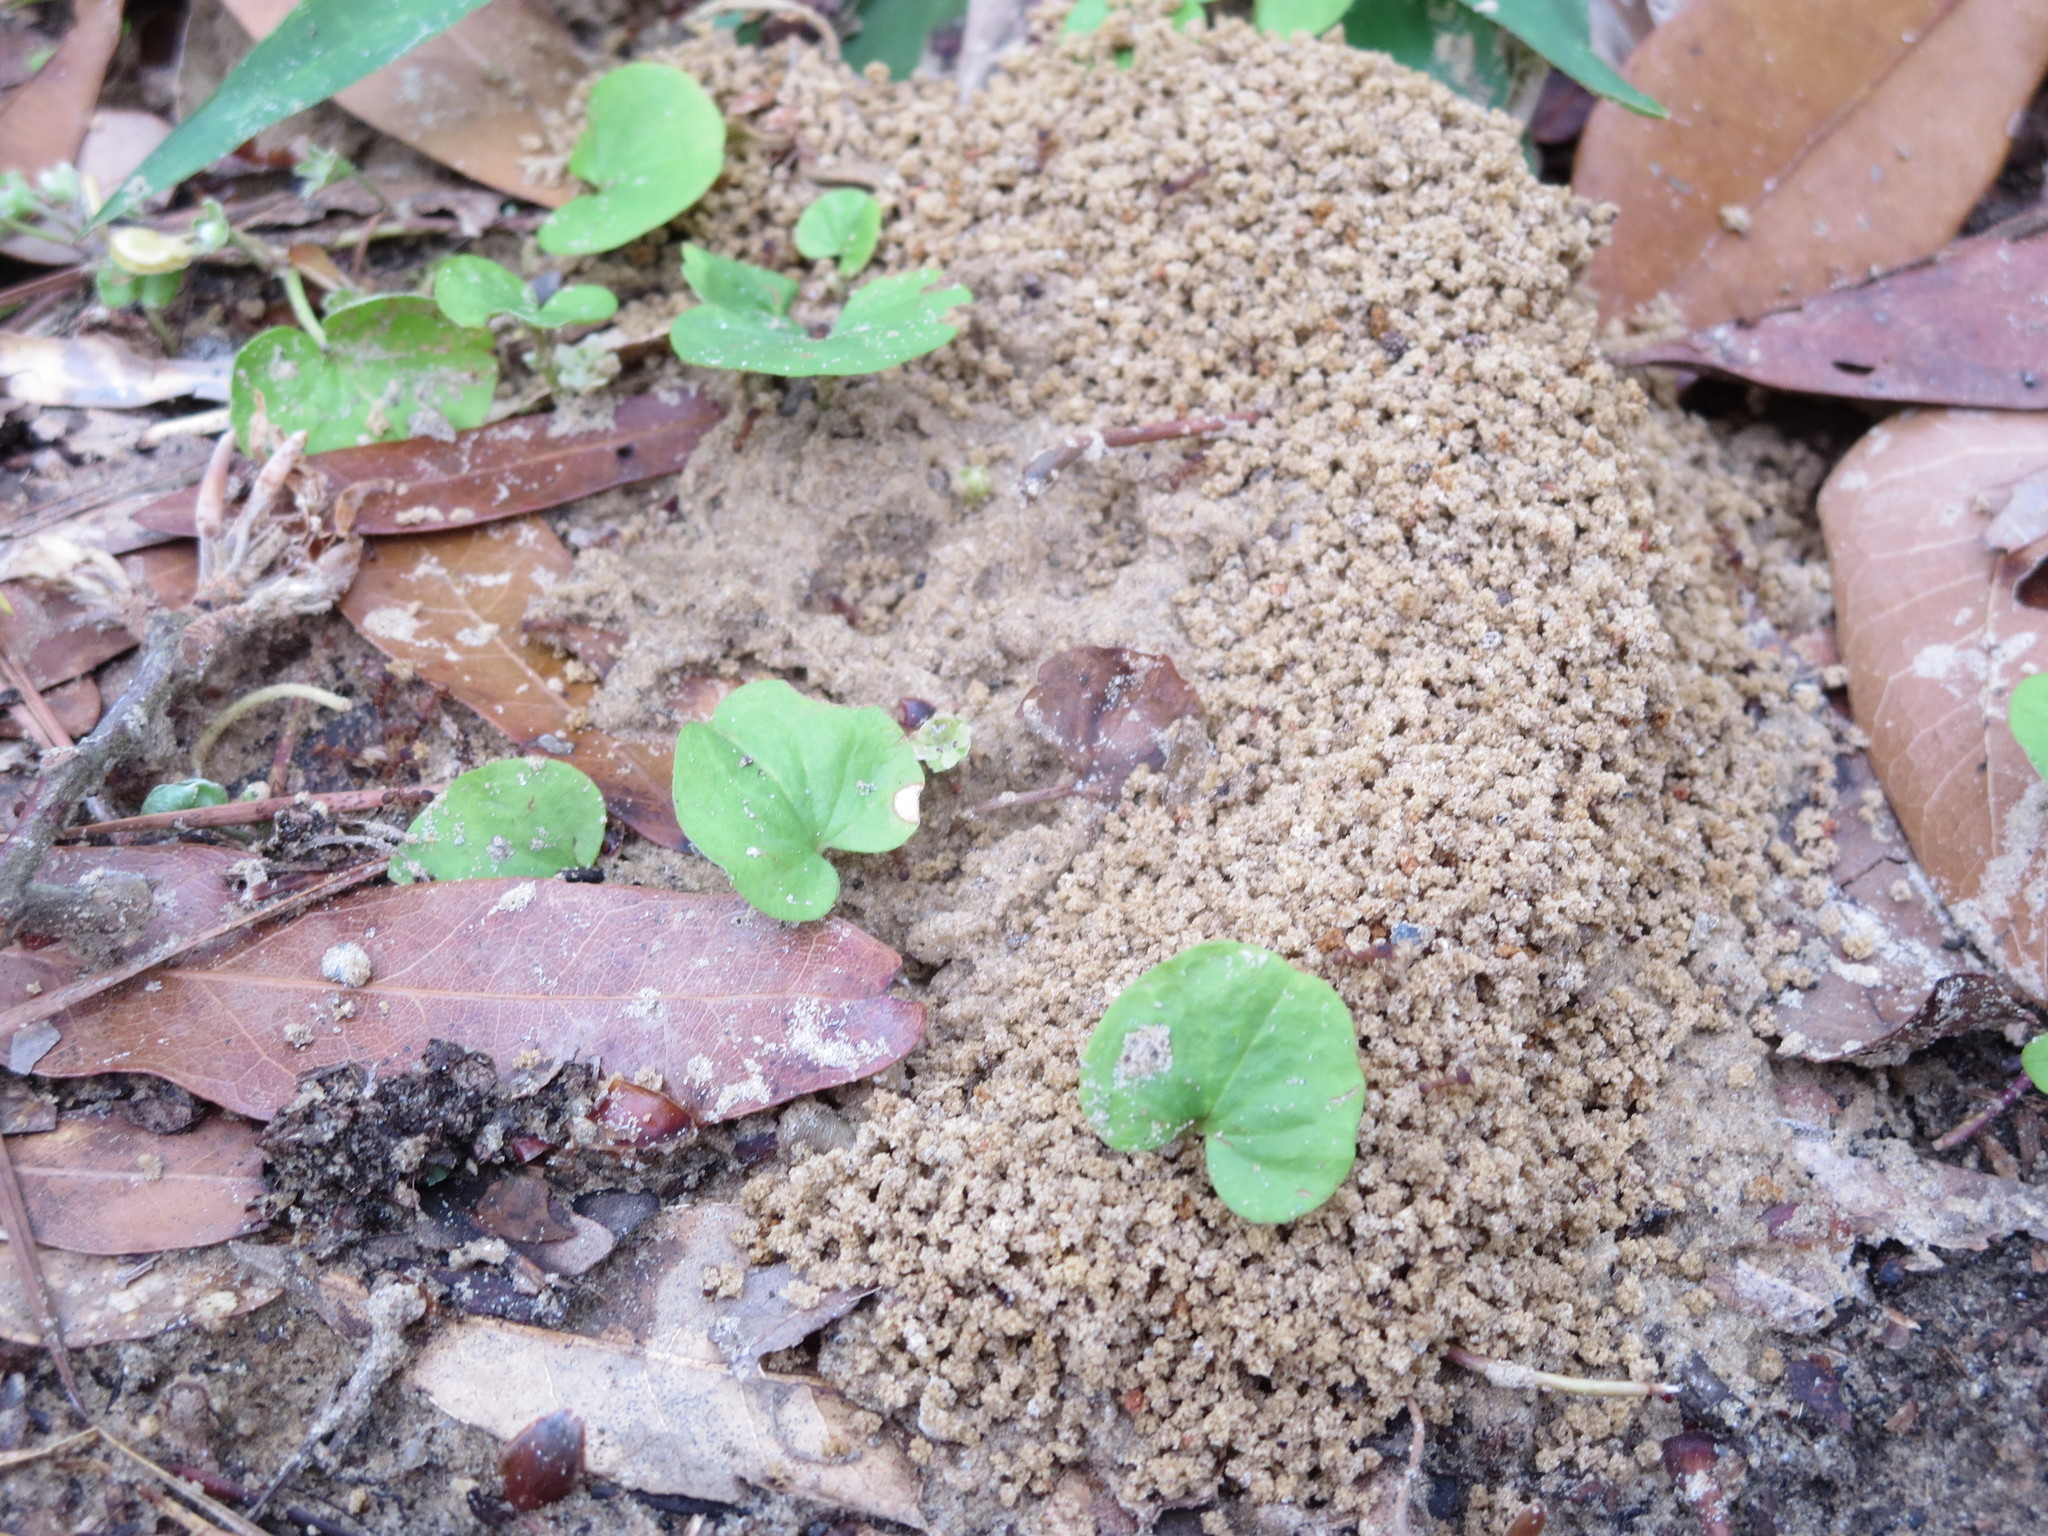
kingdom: Animalia
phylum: Arthropoda
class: Insecta
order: Hymenoptera
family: Formicidae
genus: Trachymyrmex
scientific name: Trachymyrmex septentrionalis
